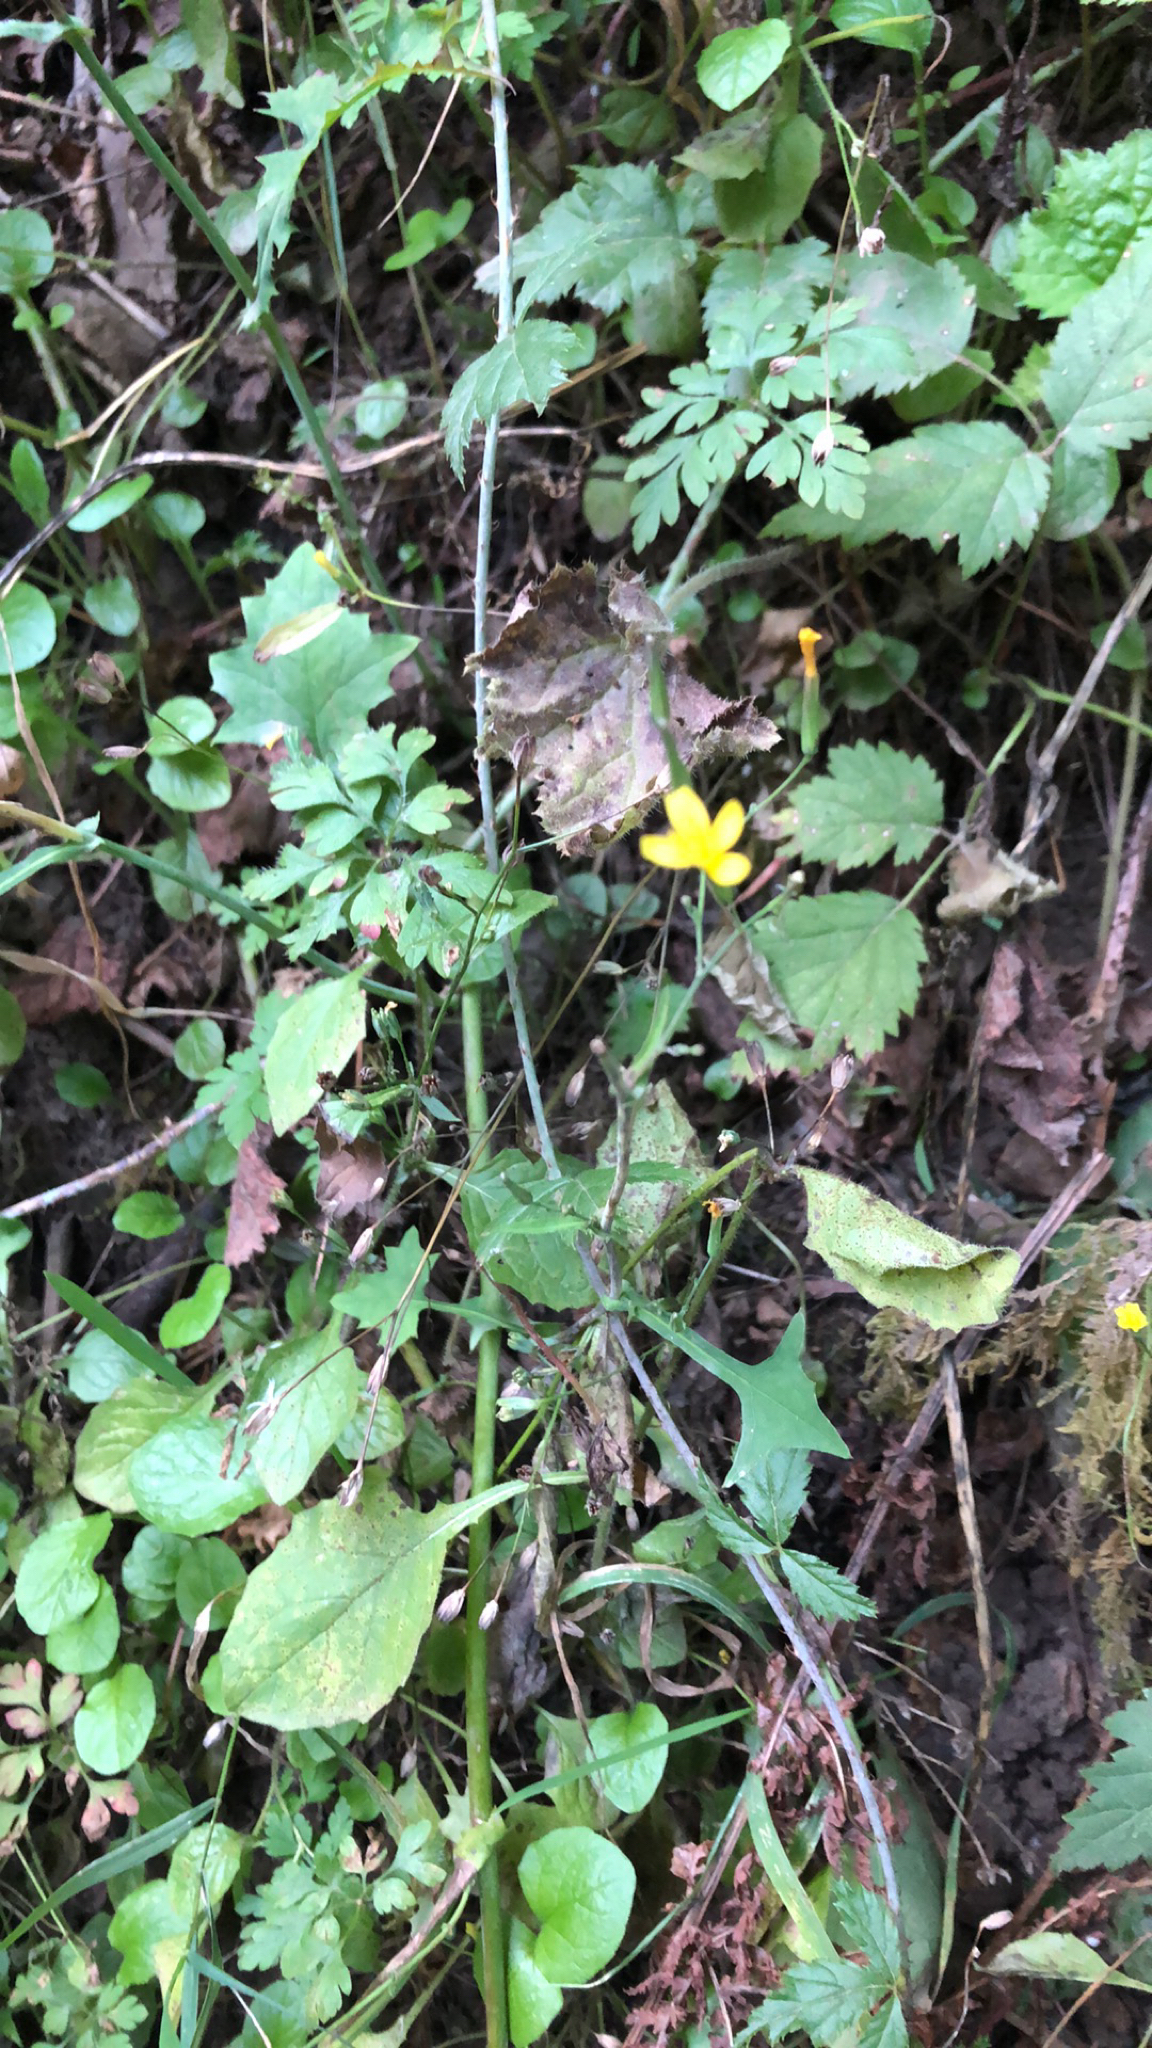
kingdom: Plantae
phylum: Tracheophyta
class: Magnoliopsida
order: Asterales
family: Asteraceae
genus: Mycelis
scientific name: Mycelis muralis
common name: Wall lettuce
